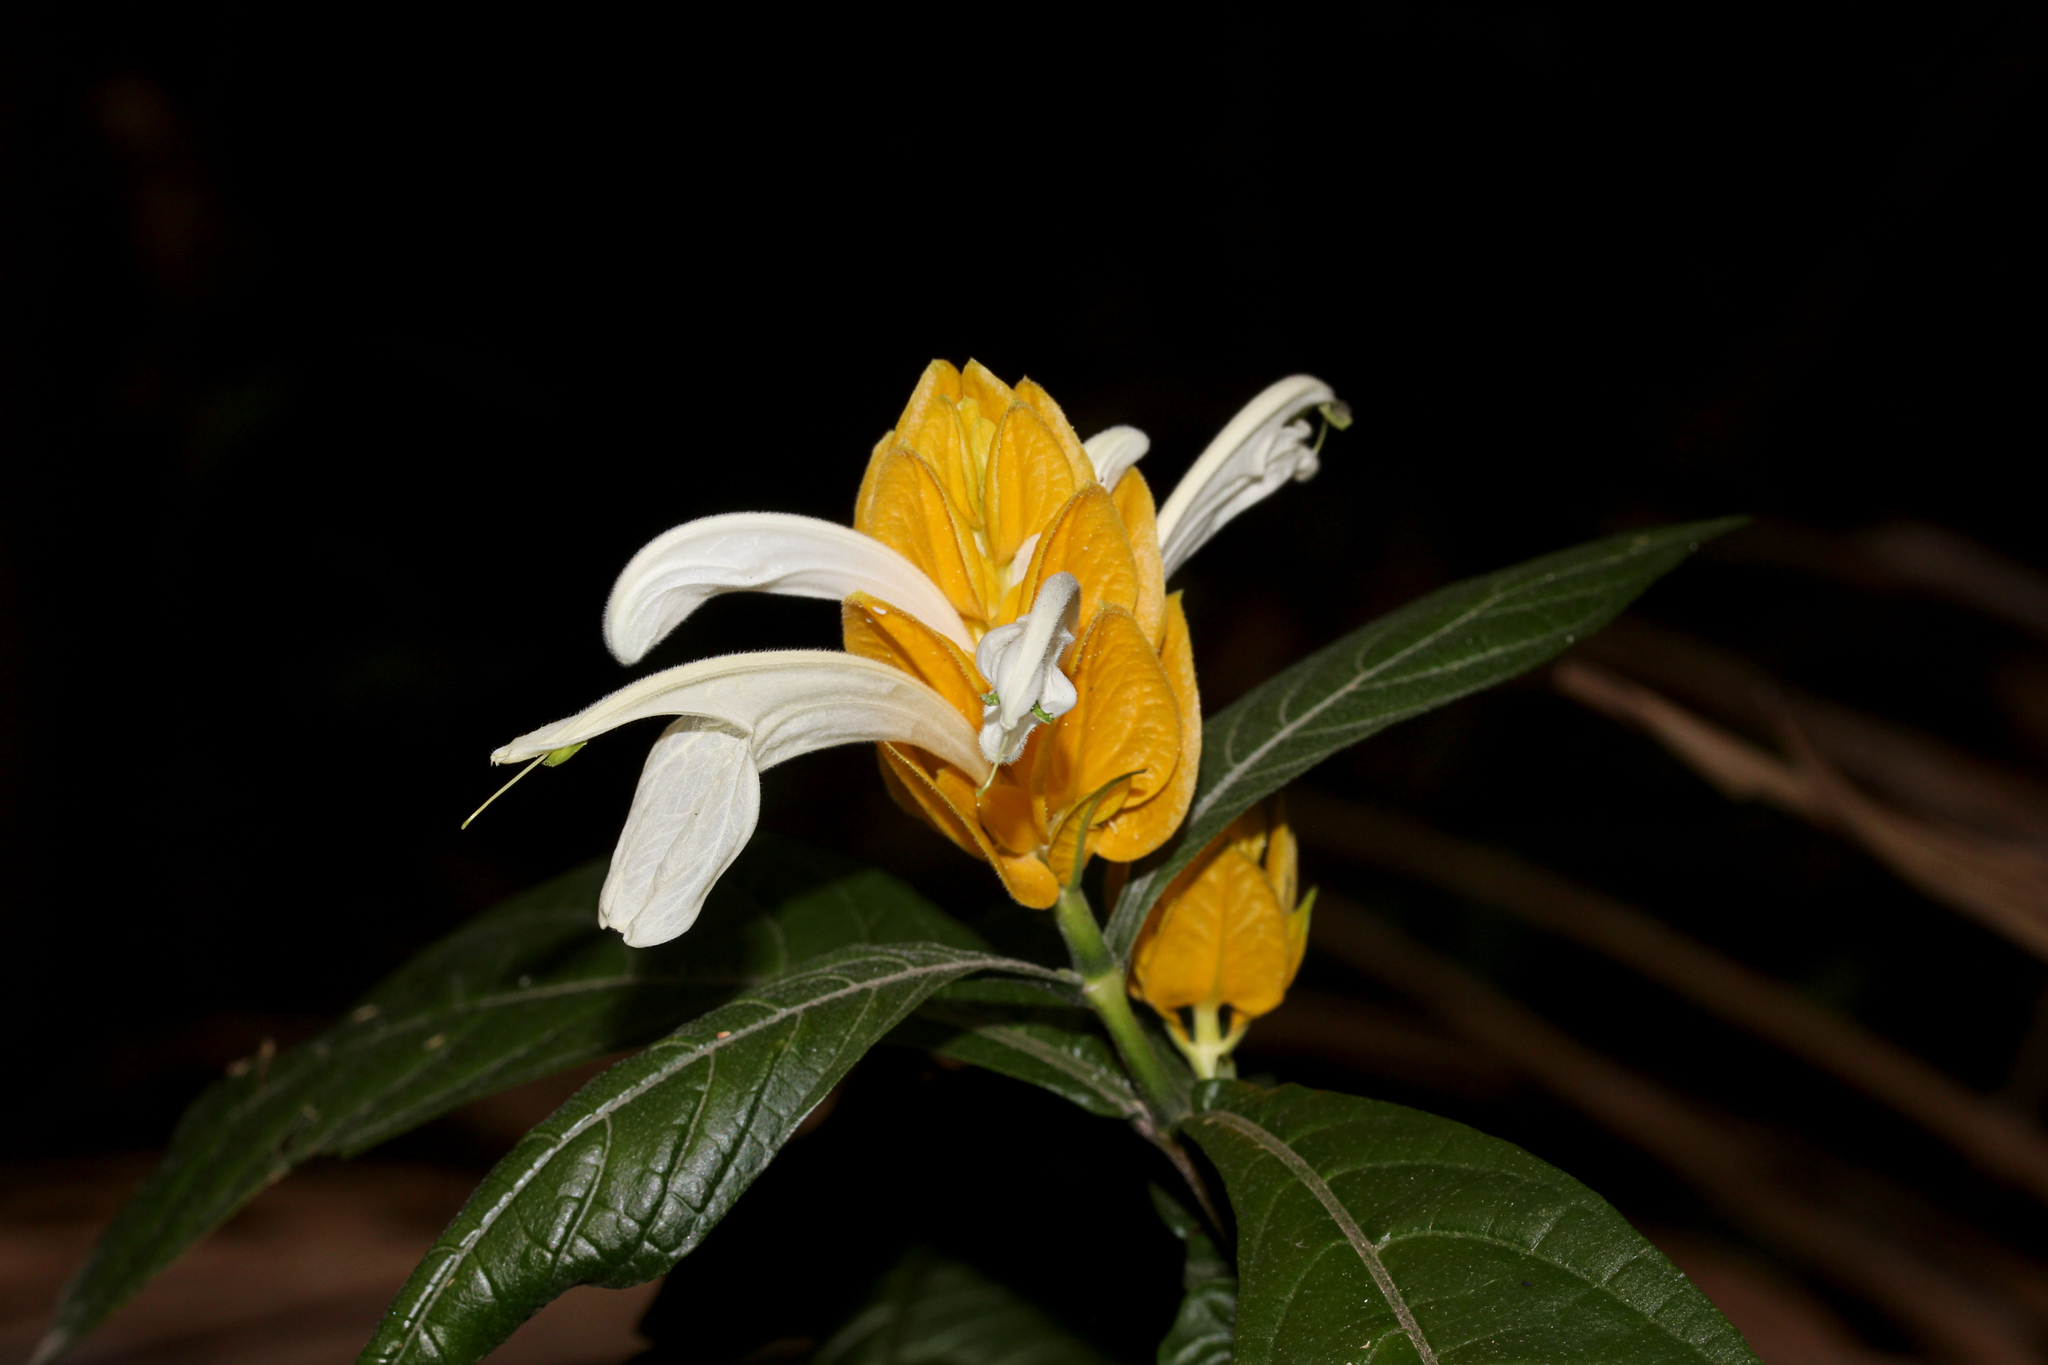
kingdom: Plantae
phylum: Tracheophyta
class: Magnoliopsida
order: Lamiales
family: Acanthaceae
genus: Pachystachys
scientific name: Pachystachys lutea
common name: Golden shrimp-plant
